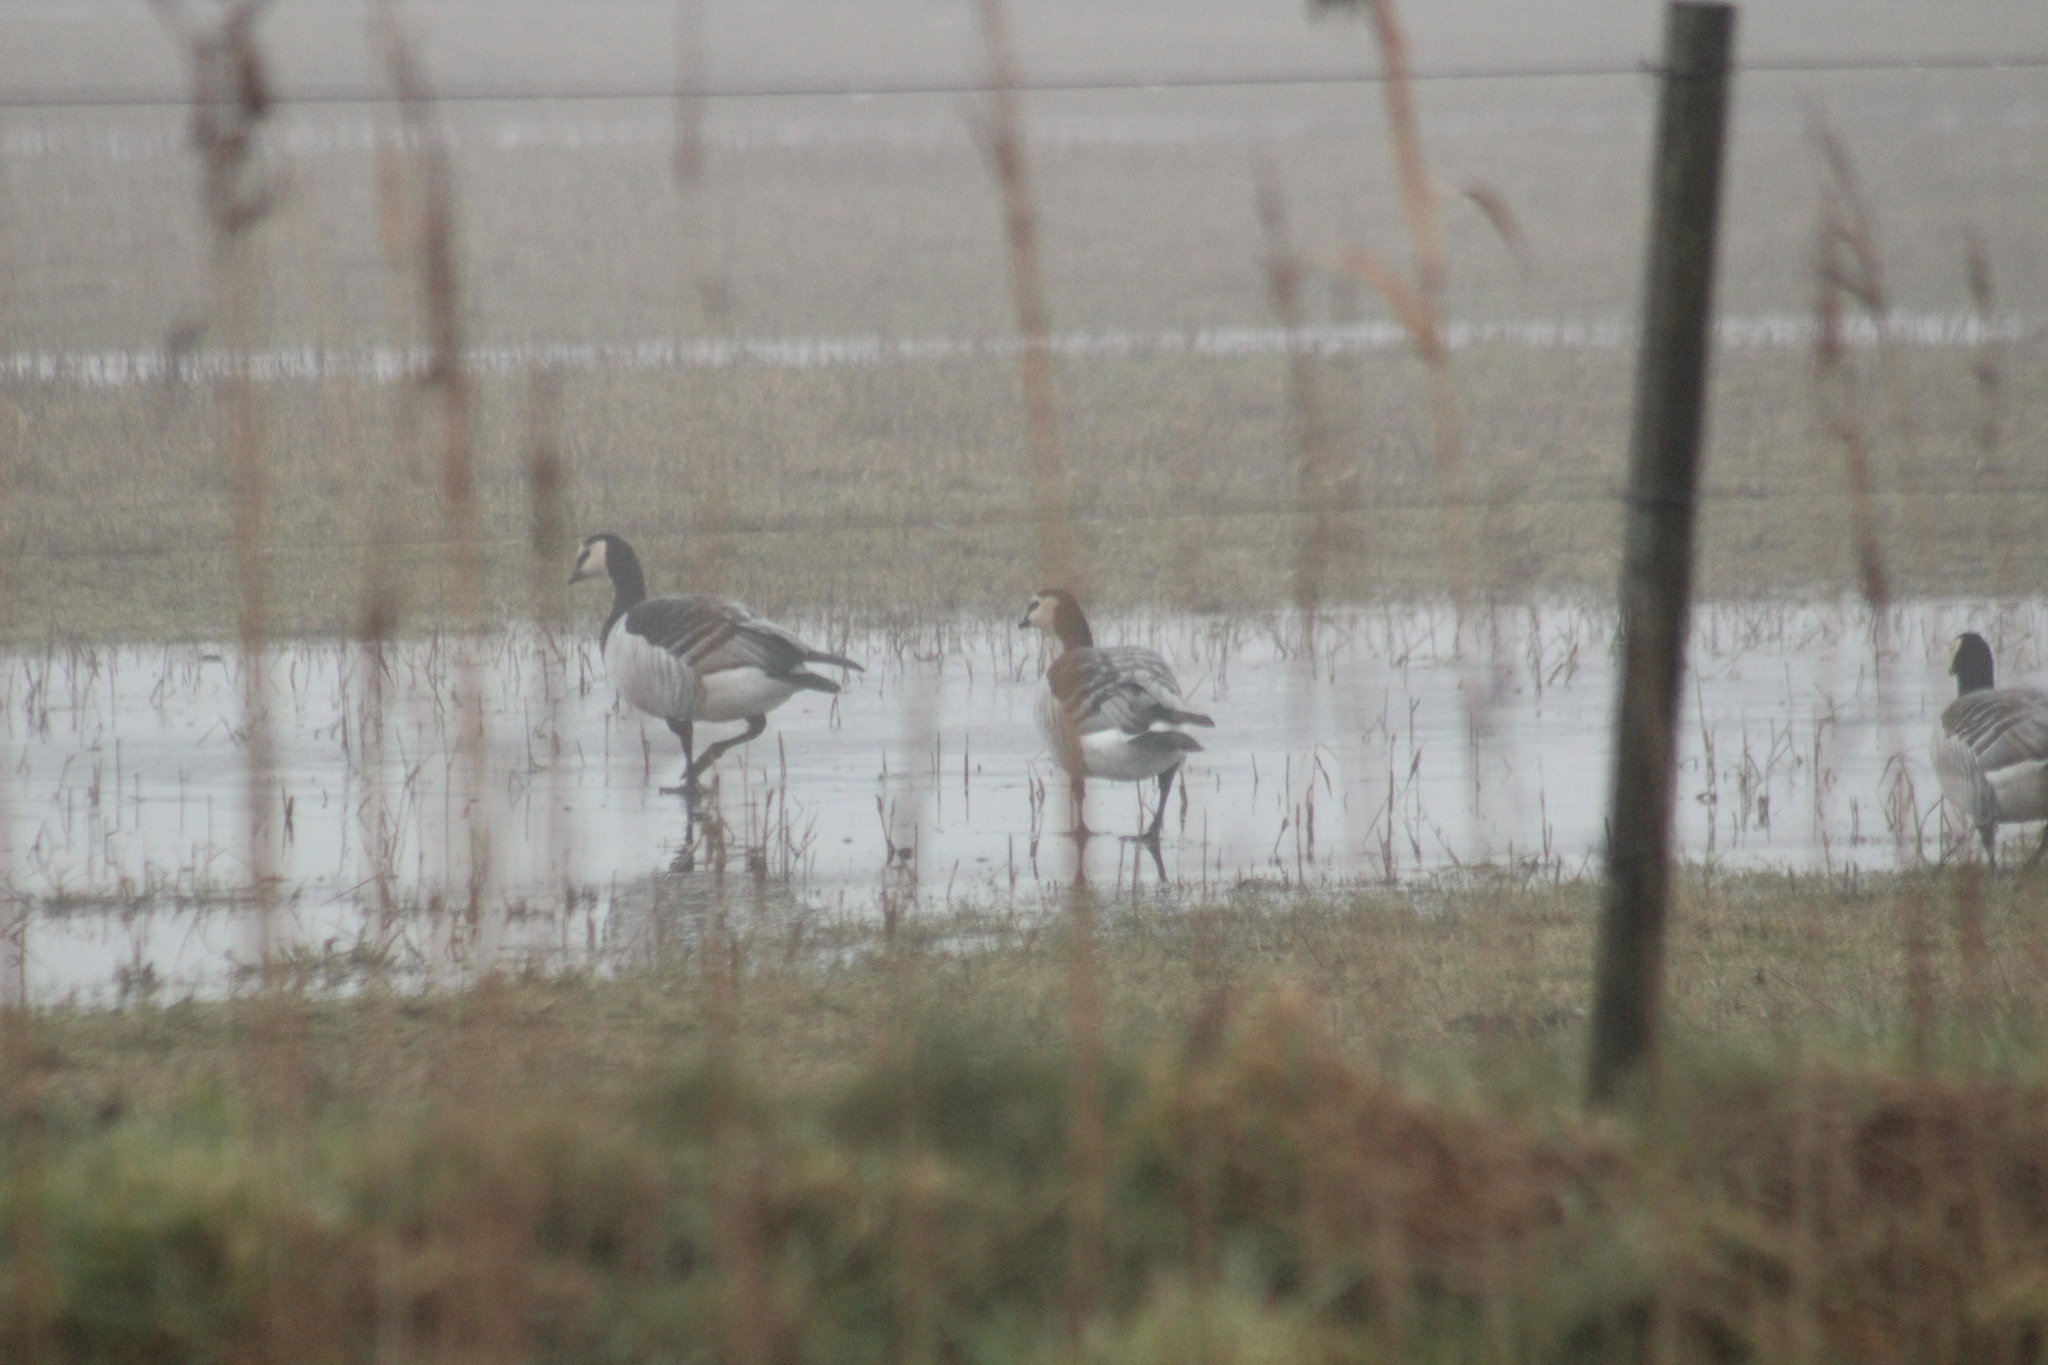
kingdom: Animalia
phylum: Chordata
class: Aves
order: Anseriformes
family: Anatidae
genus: Branta
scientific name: Branta leucopsis
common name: Barnacle goose
